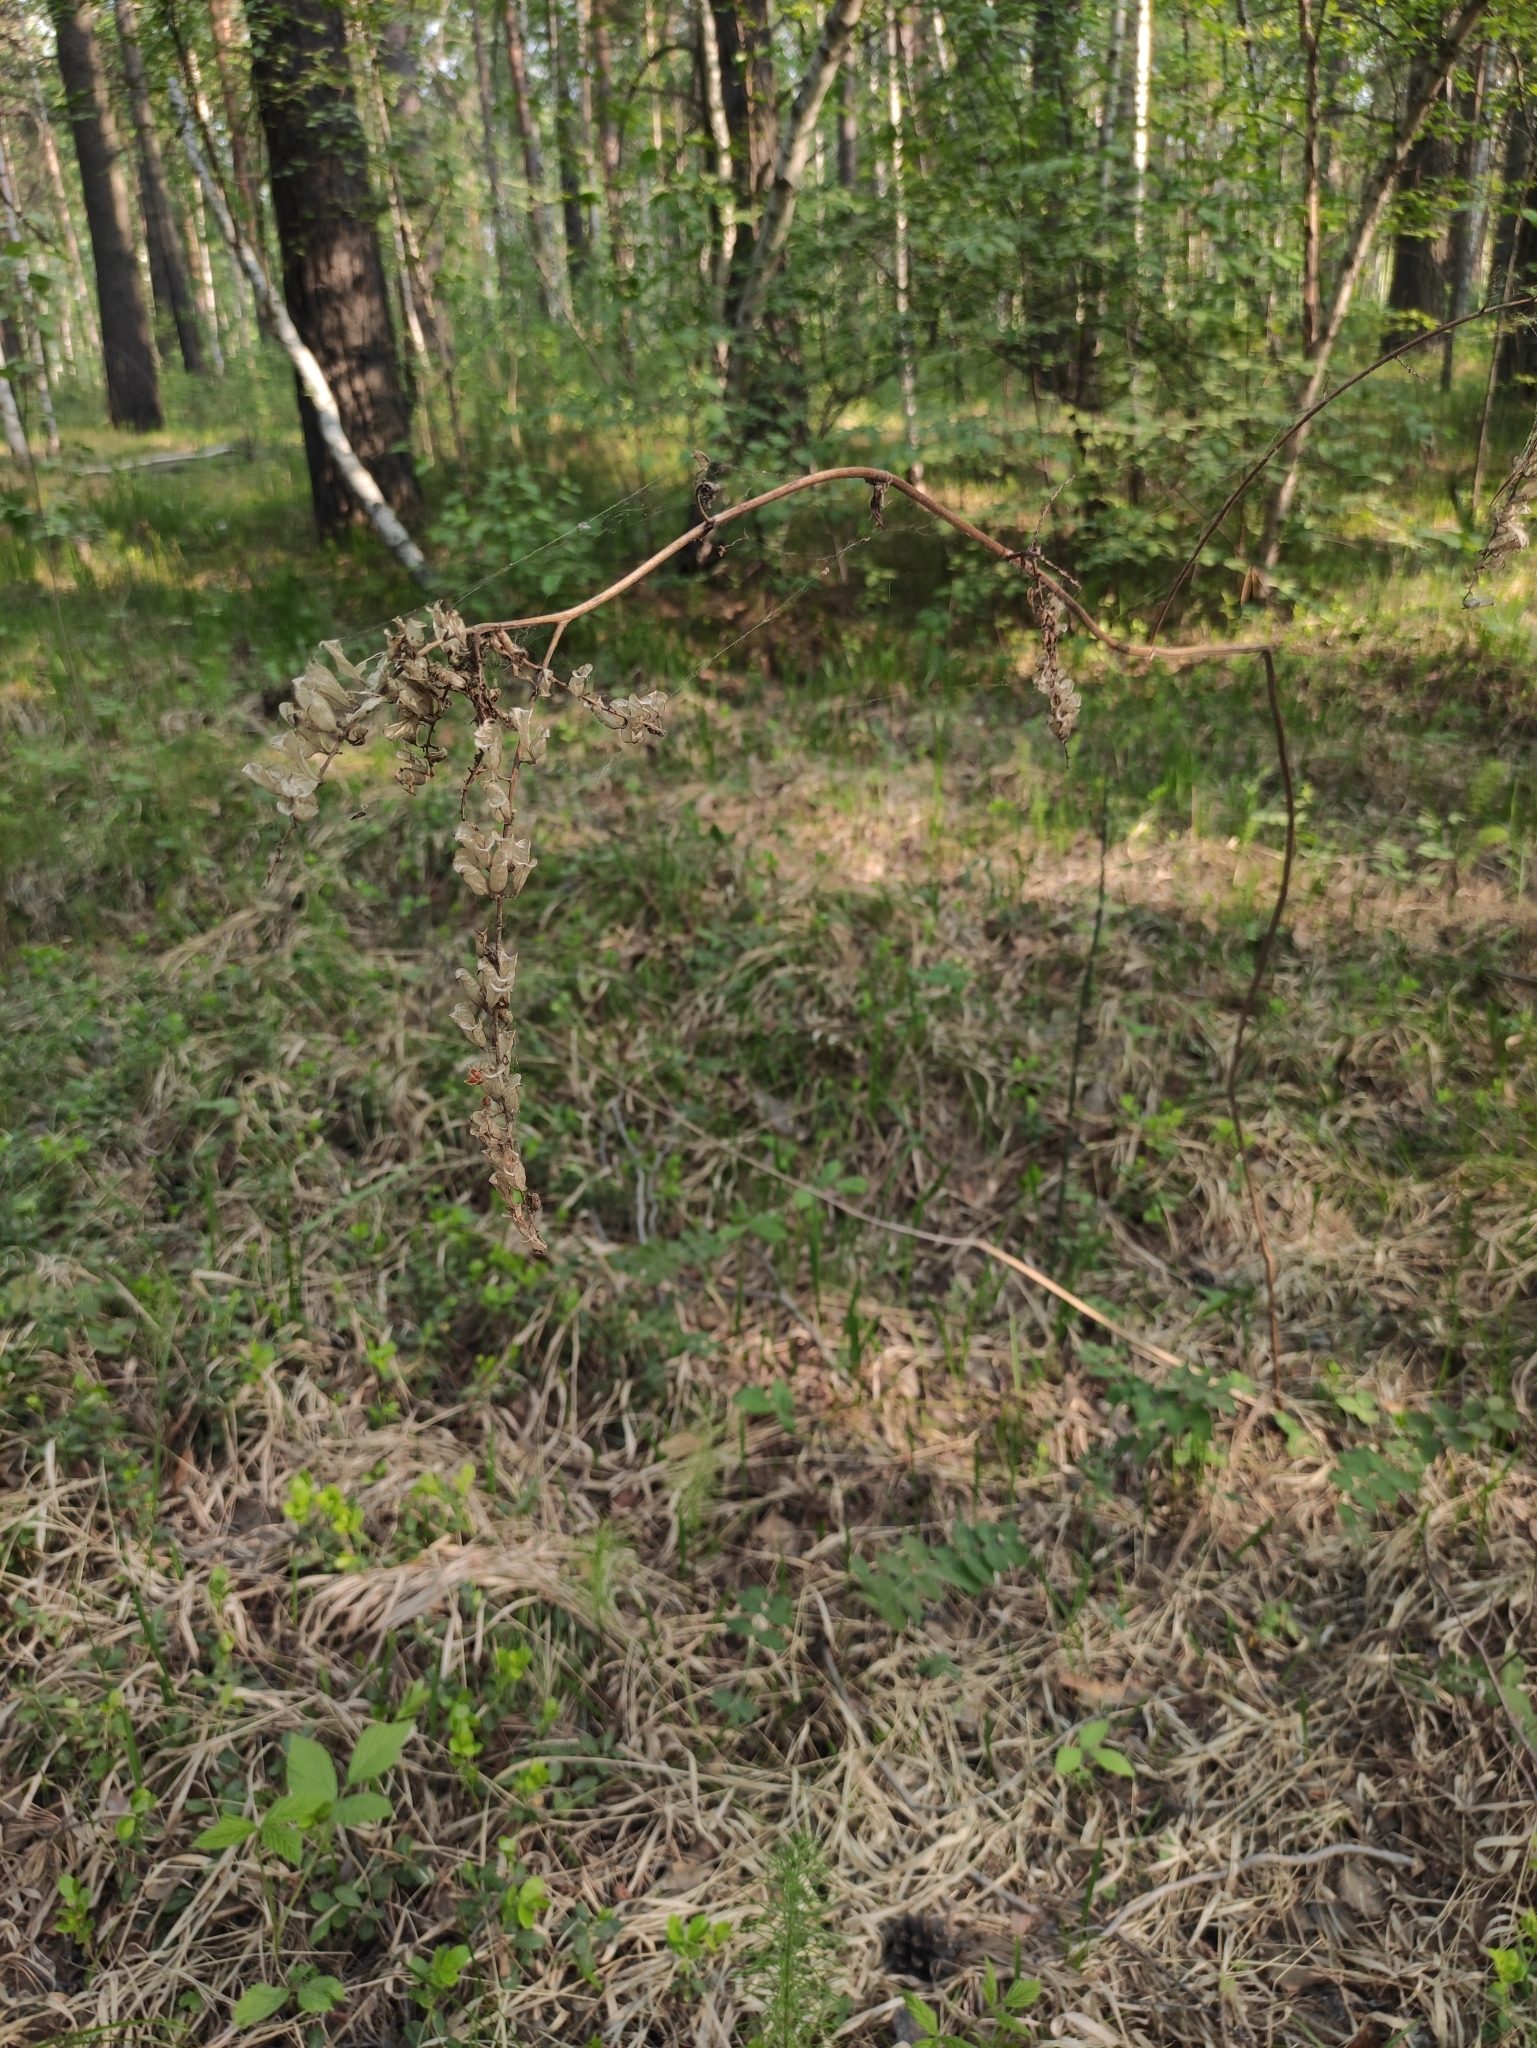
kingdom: Plantae
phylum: Tracheophyta
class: Magnoliopsida
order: Ranunculales
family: Ranunculaceae
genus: Actaea
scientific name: Actaea cimicifuga
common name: Chinese cimicifuga
